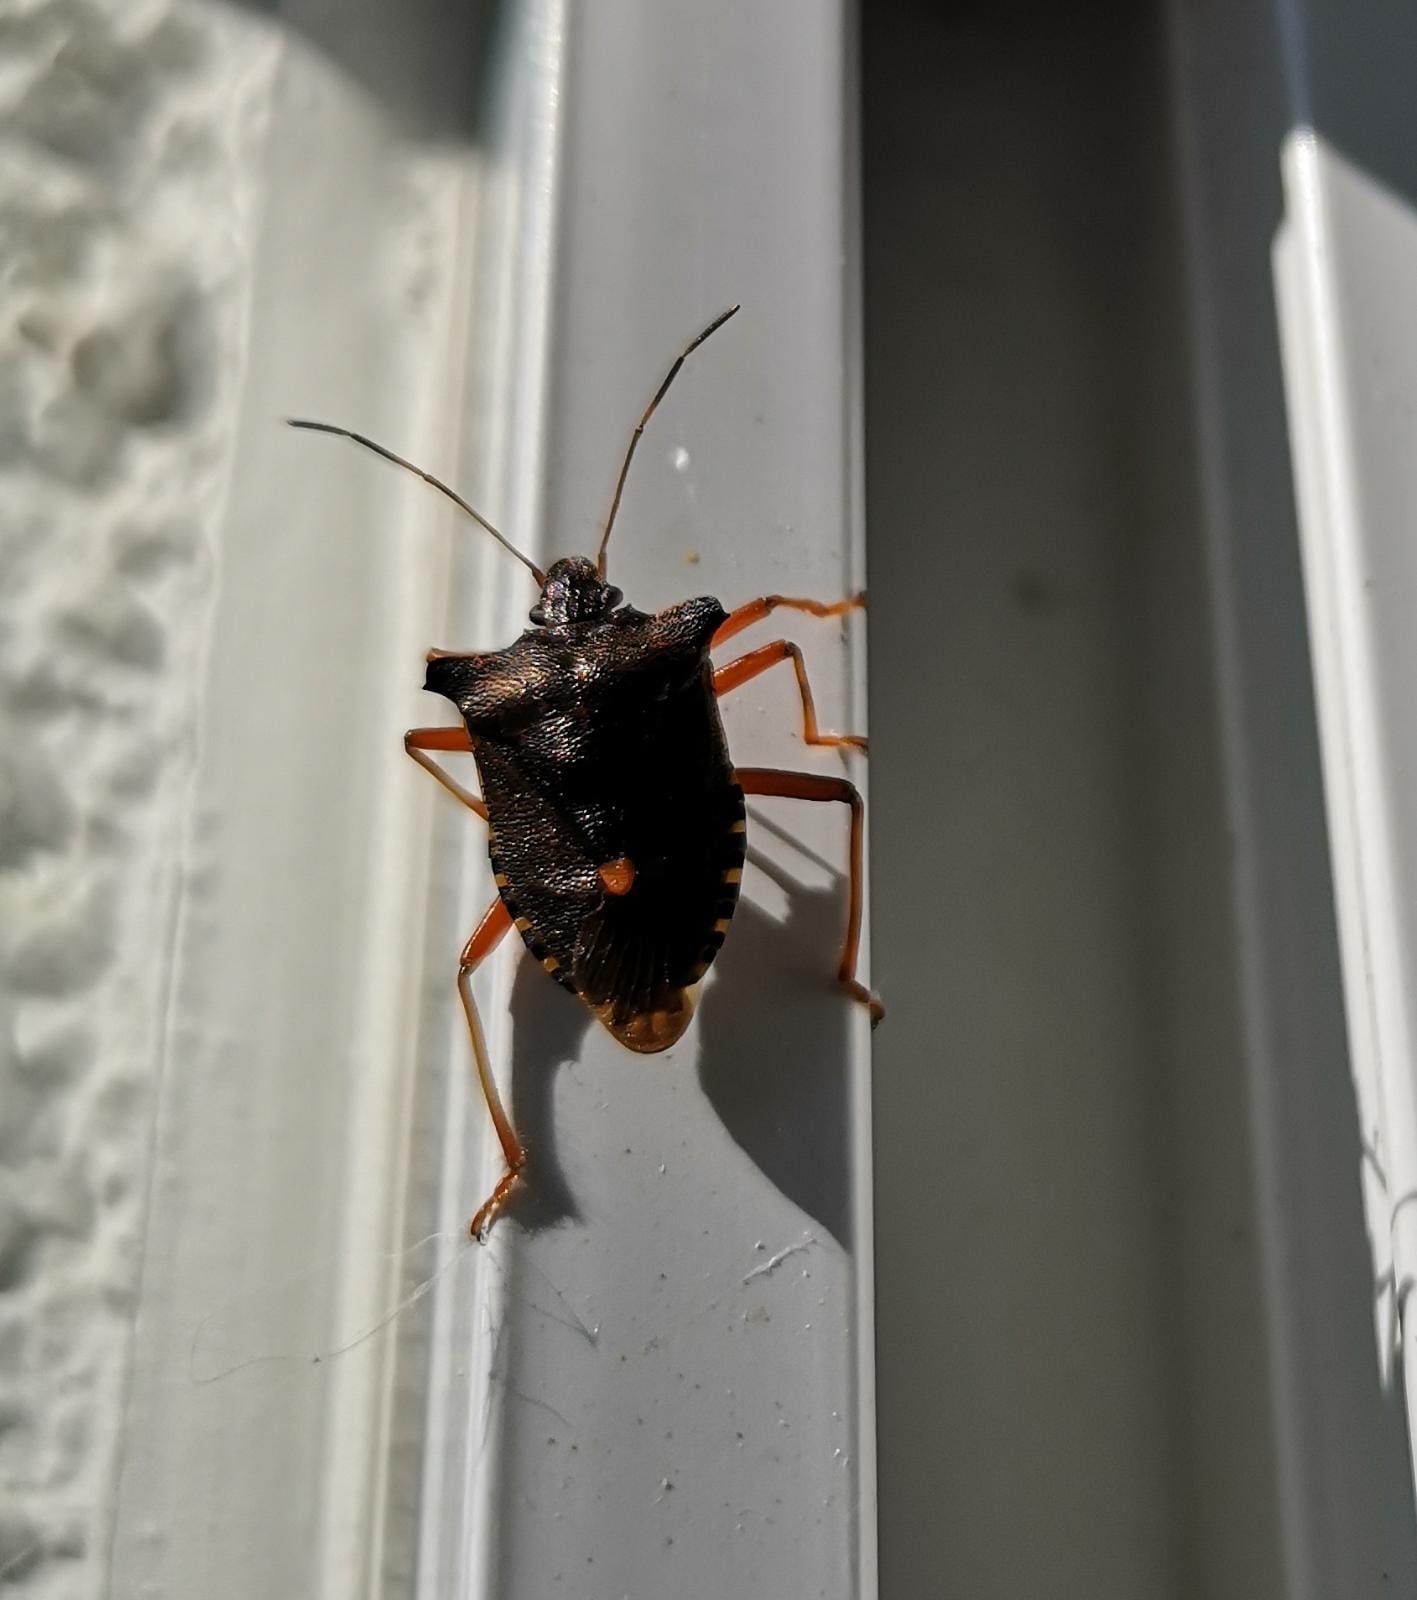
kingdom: Animalia
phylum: Arthropoda
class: Insecta
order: Hemiptera
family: Pentatomidae
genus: Pentatoma
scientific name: Pentatoma rufipes
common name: Forest bug
